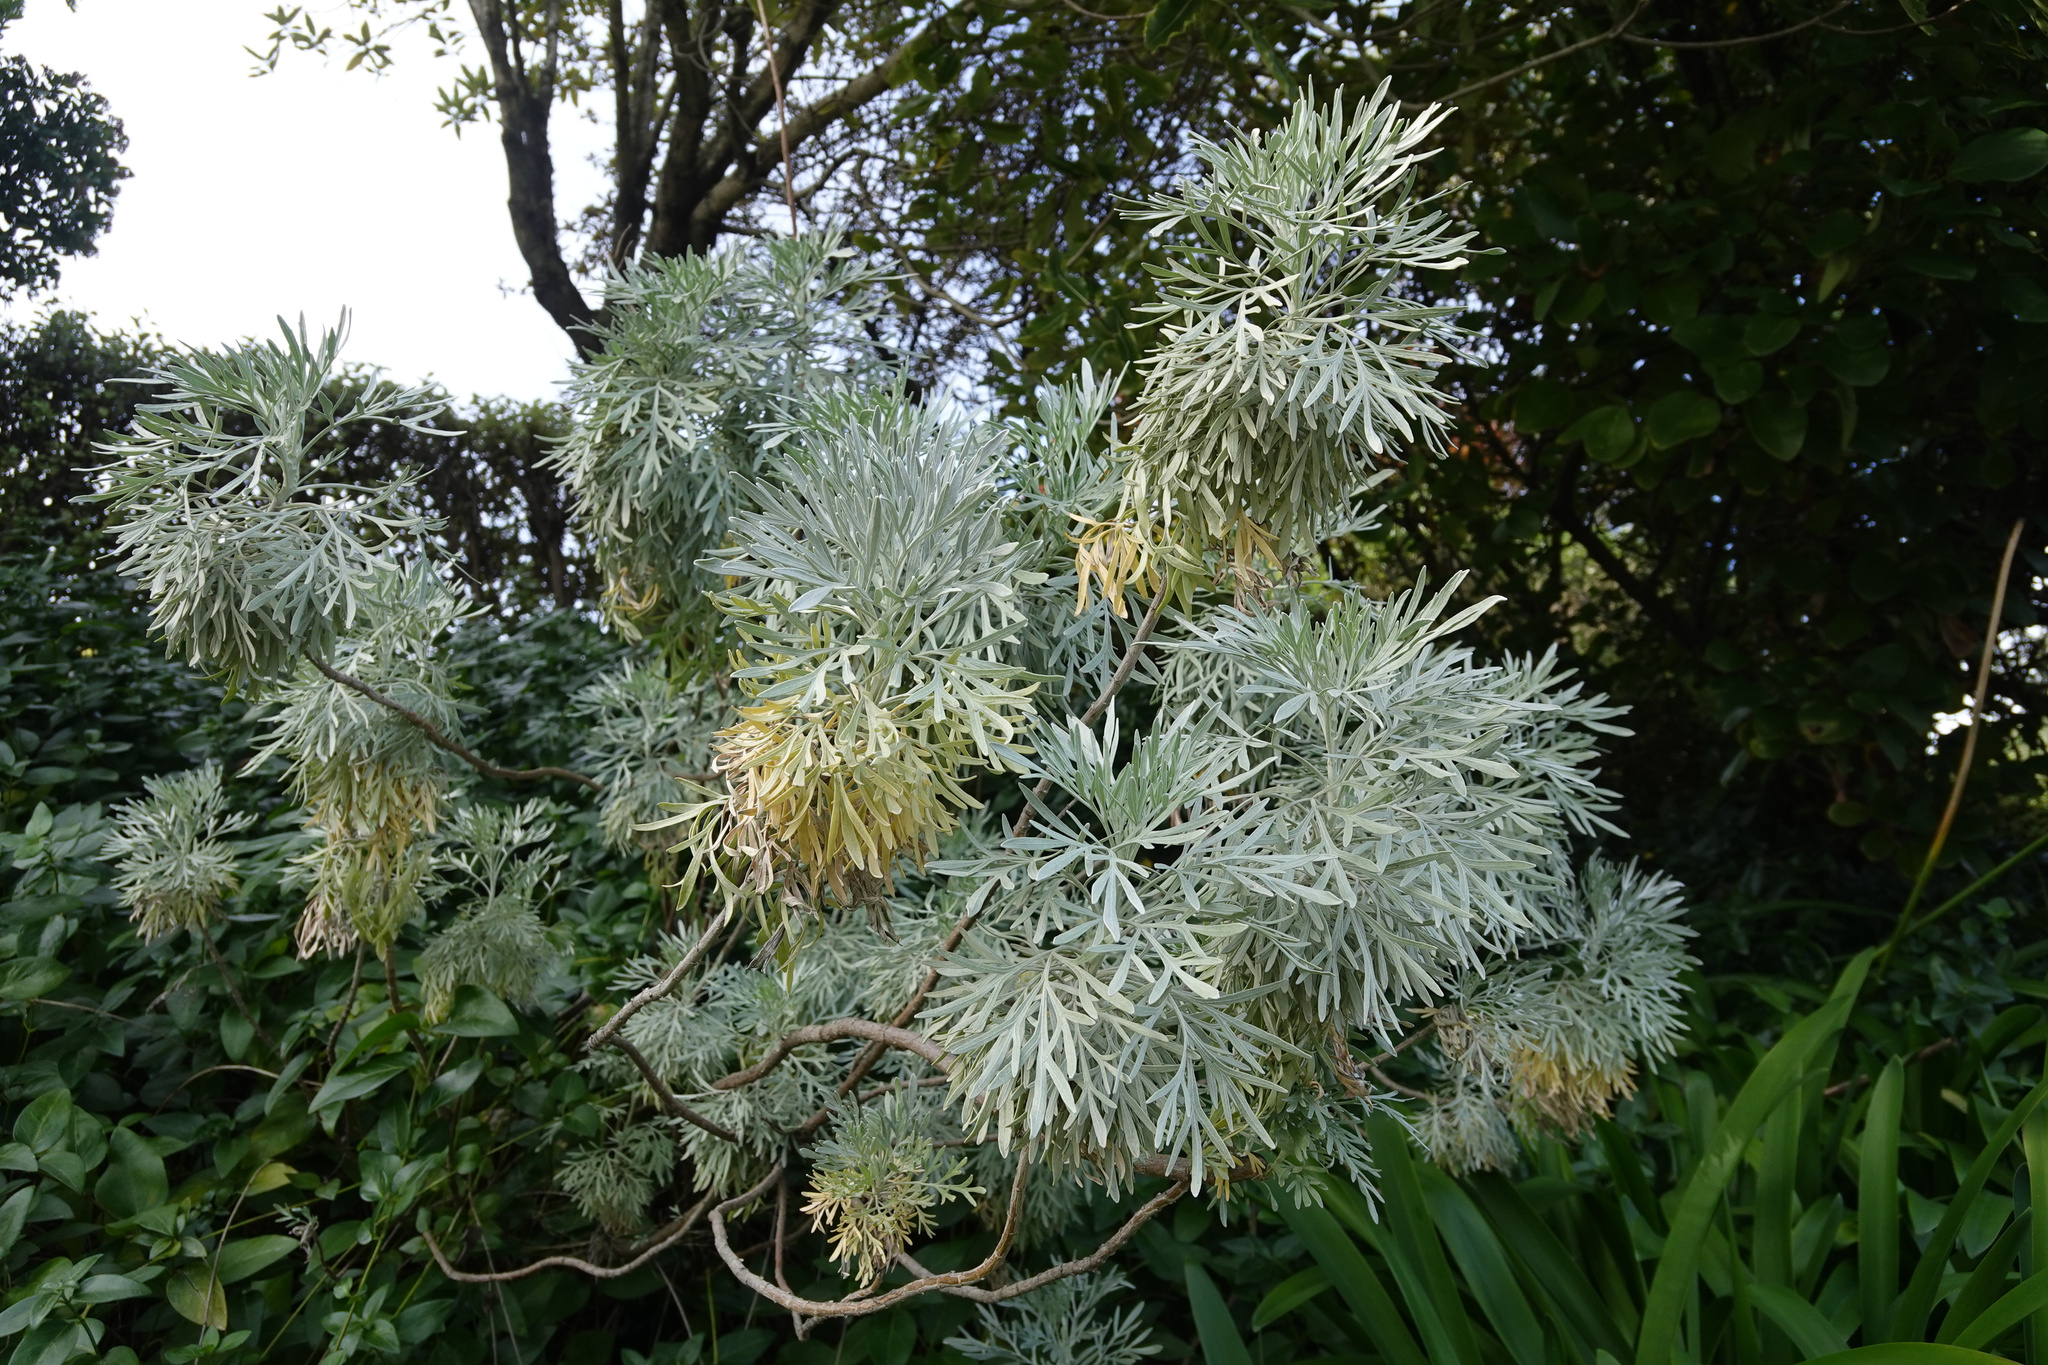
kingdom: Plantae
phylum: Tracheophyta
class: Magnoliopsida
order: Asterales
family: Asteraceae
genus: Artemisia
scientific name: Artemisia arborescens
